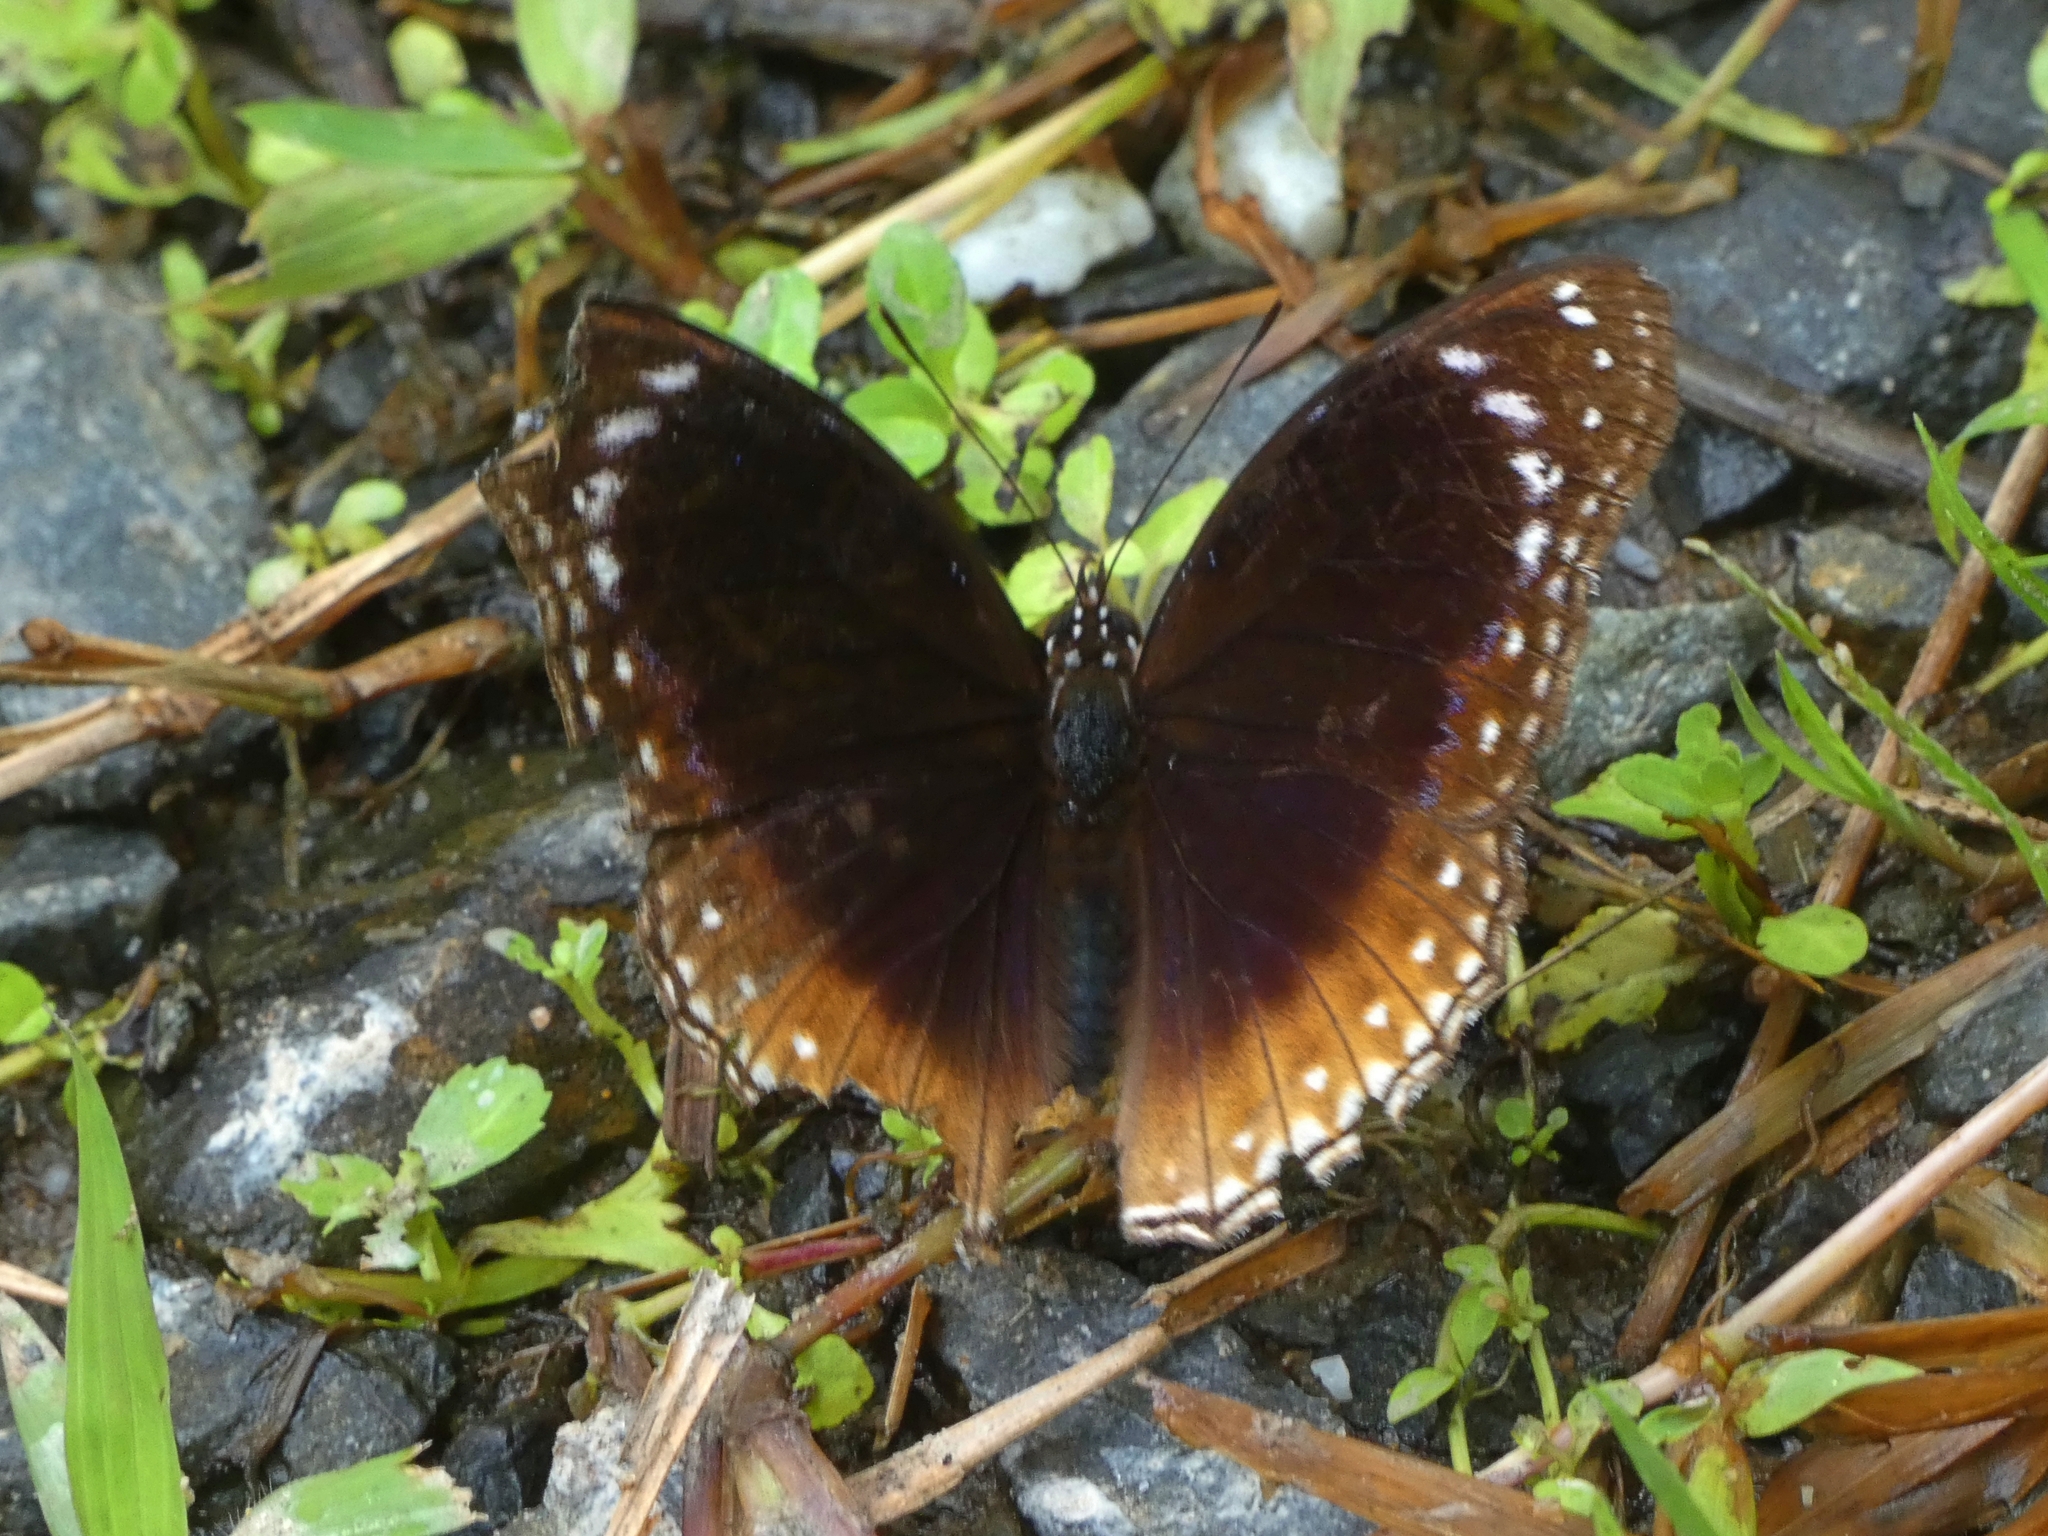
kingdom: Animalia
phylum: Arthropoda
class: Insecta
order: Lepidoptera
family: Nymphalidae
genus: Hypolimnas
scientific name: Hypolimnas alimena
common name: Blue-banded eggfly
